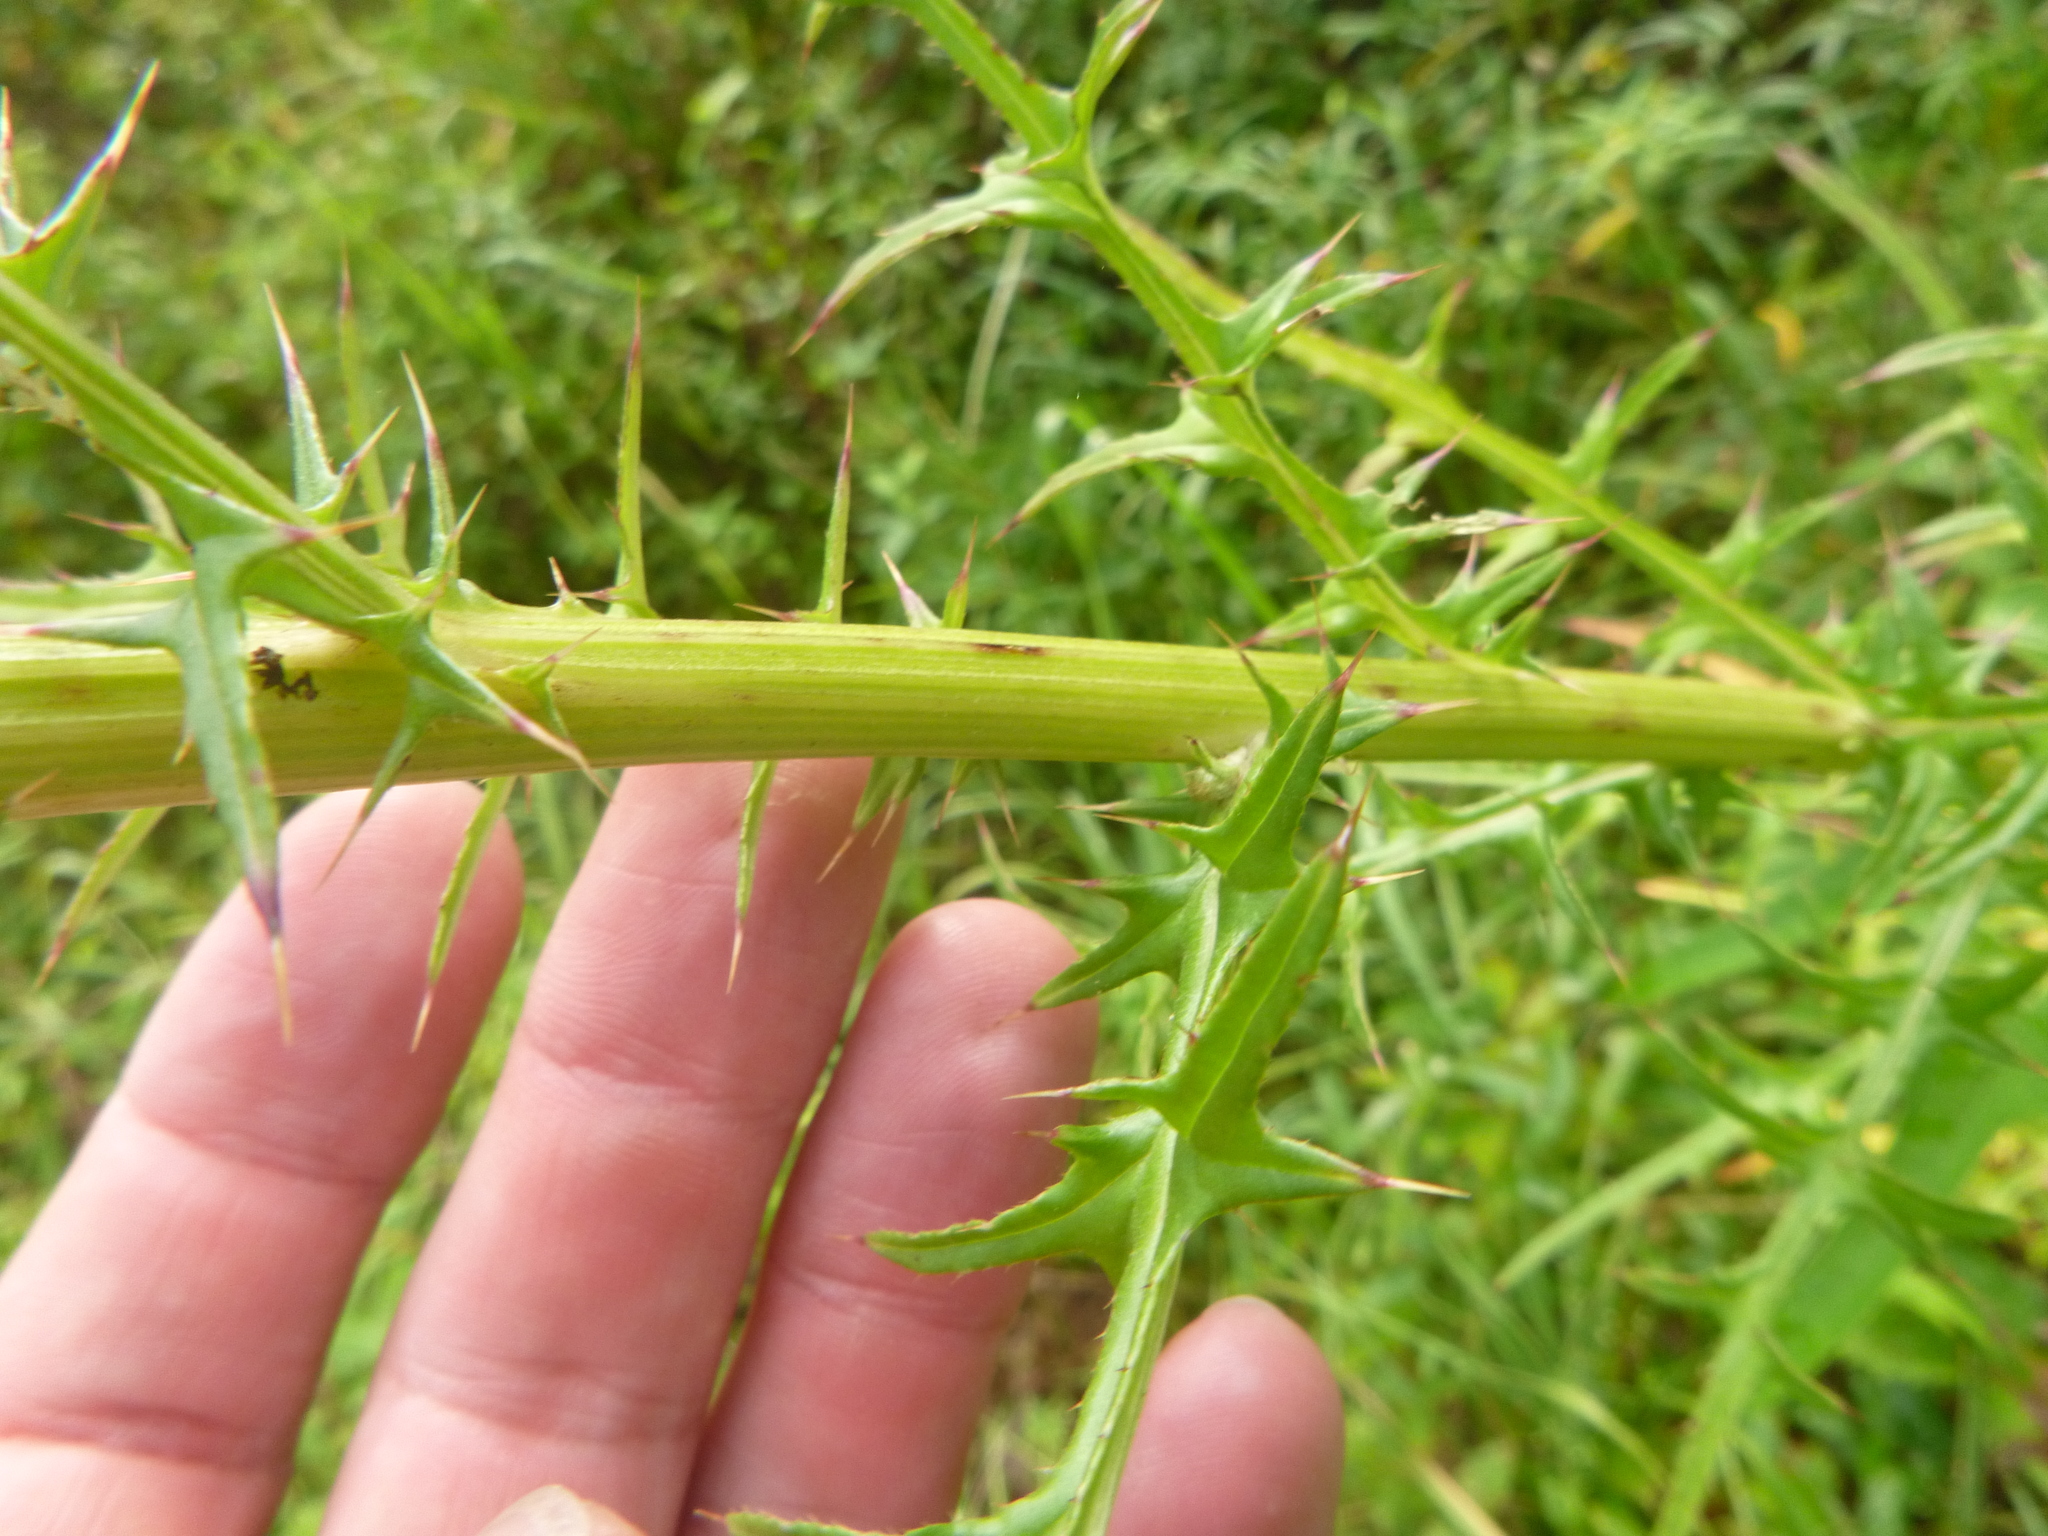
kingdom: Plantae
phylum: Tracheophyta
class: Magnoliopsida
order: Asterales
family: Asteraceae
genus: Cirsium
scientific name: Cirsium nuttalii
